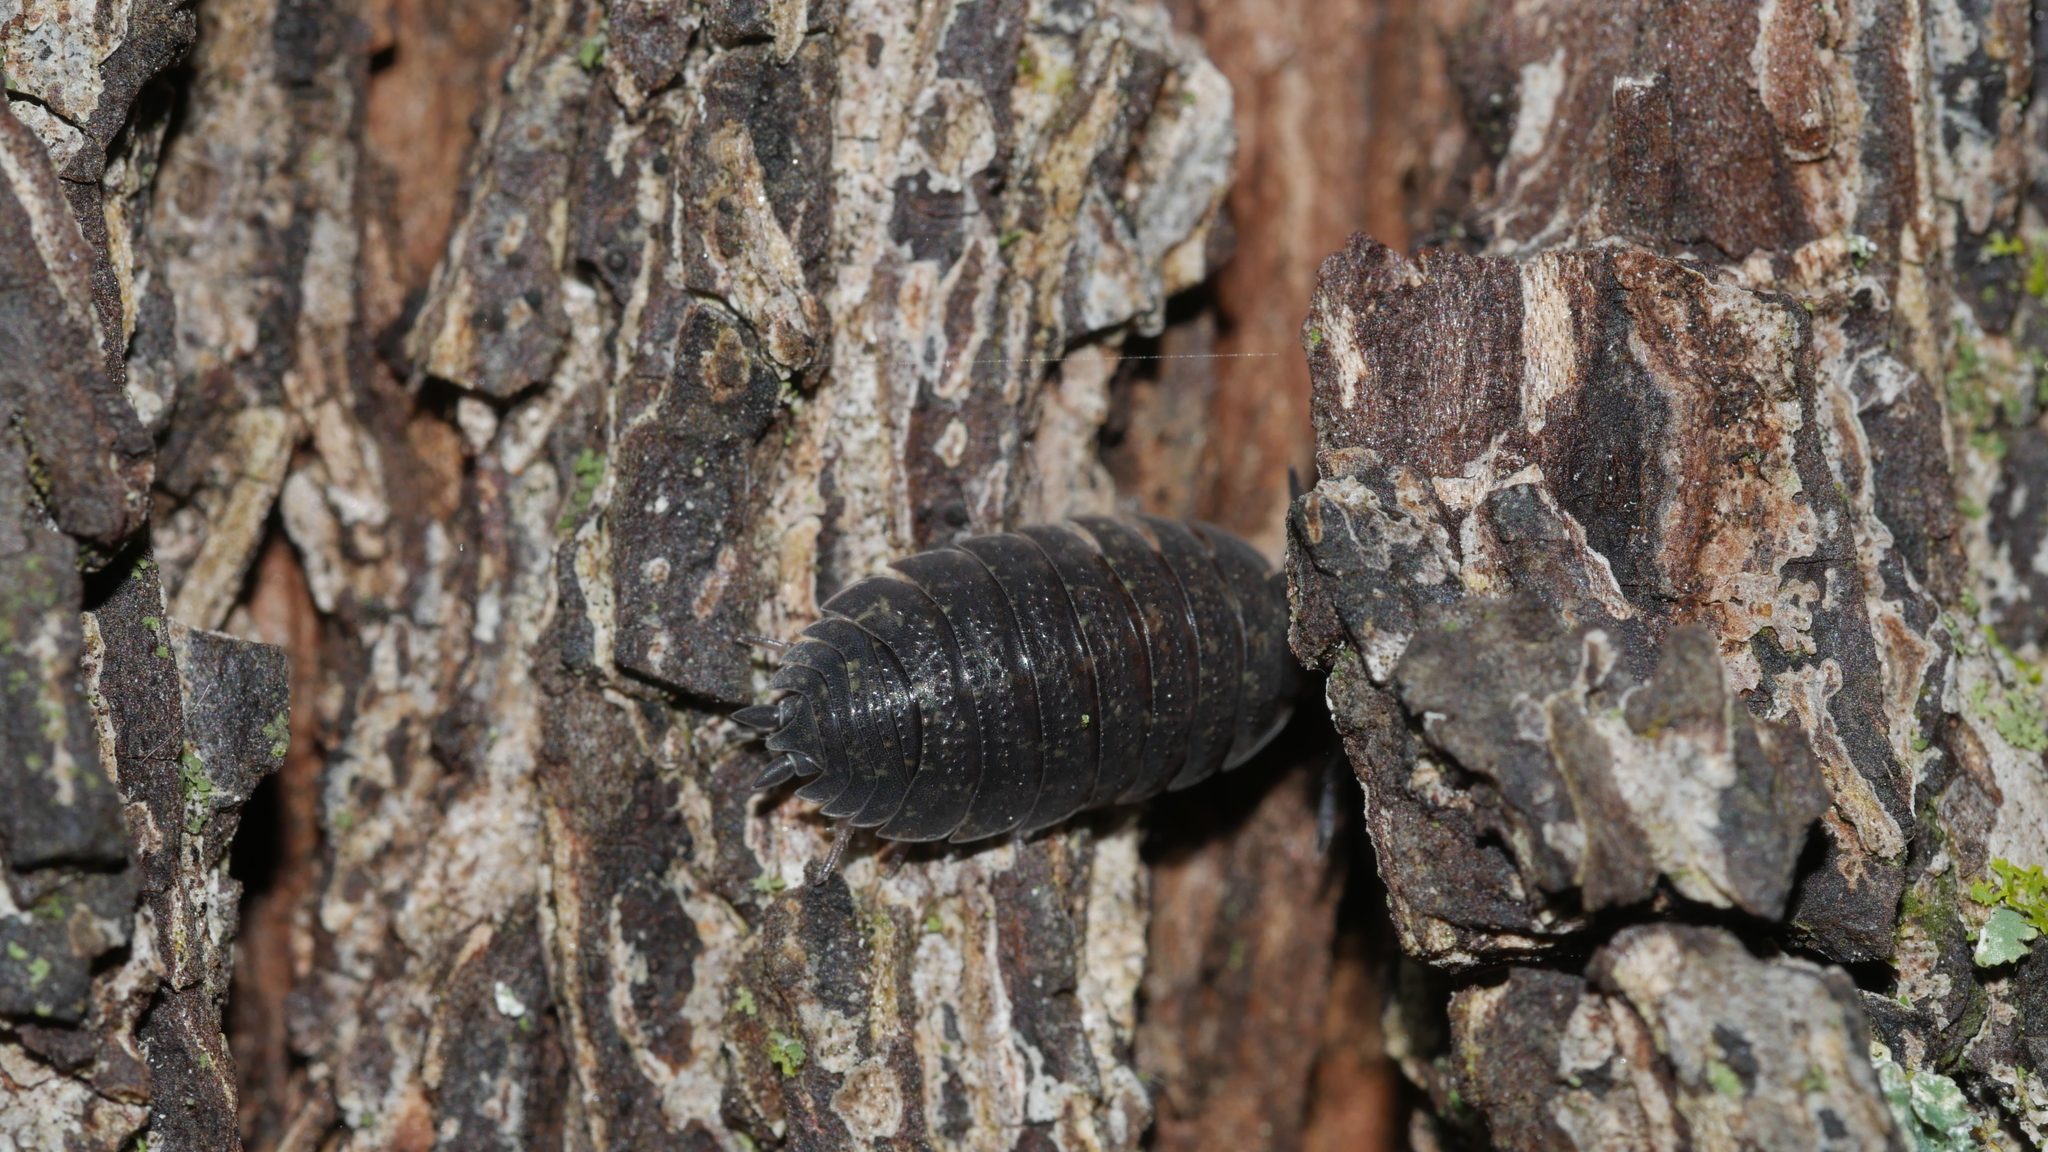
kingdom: Animalia
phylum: Arthropoda
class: Malacostraca
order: Isopoda
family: Porcellionidae
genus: Porcellio
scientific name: Porcellio scaber
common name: Common rough woodlouse
